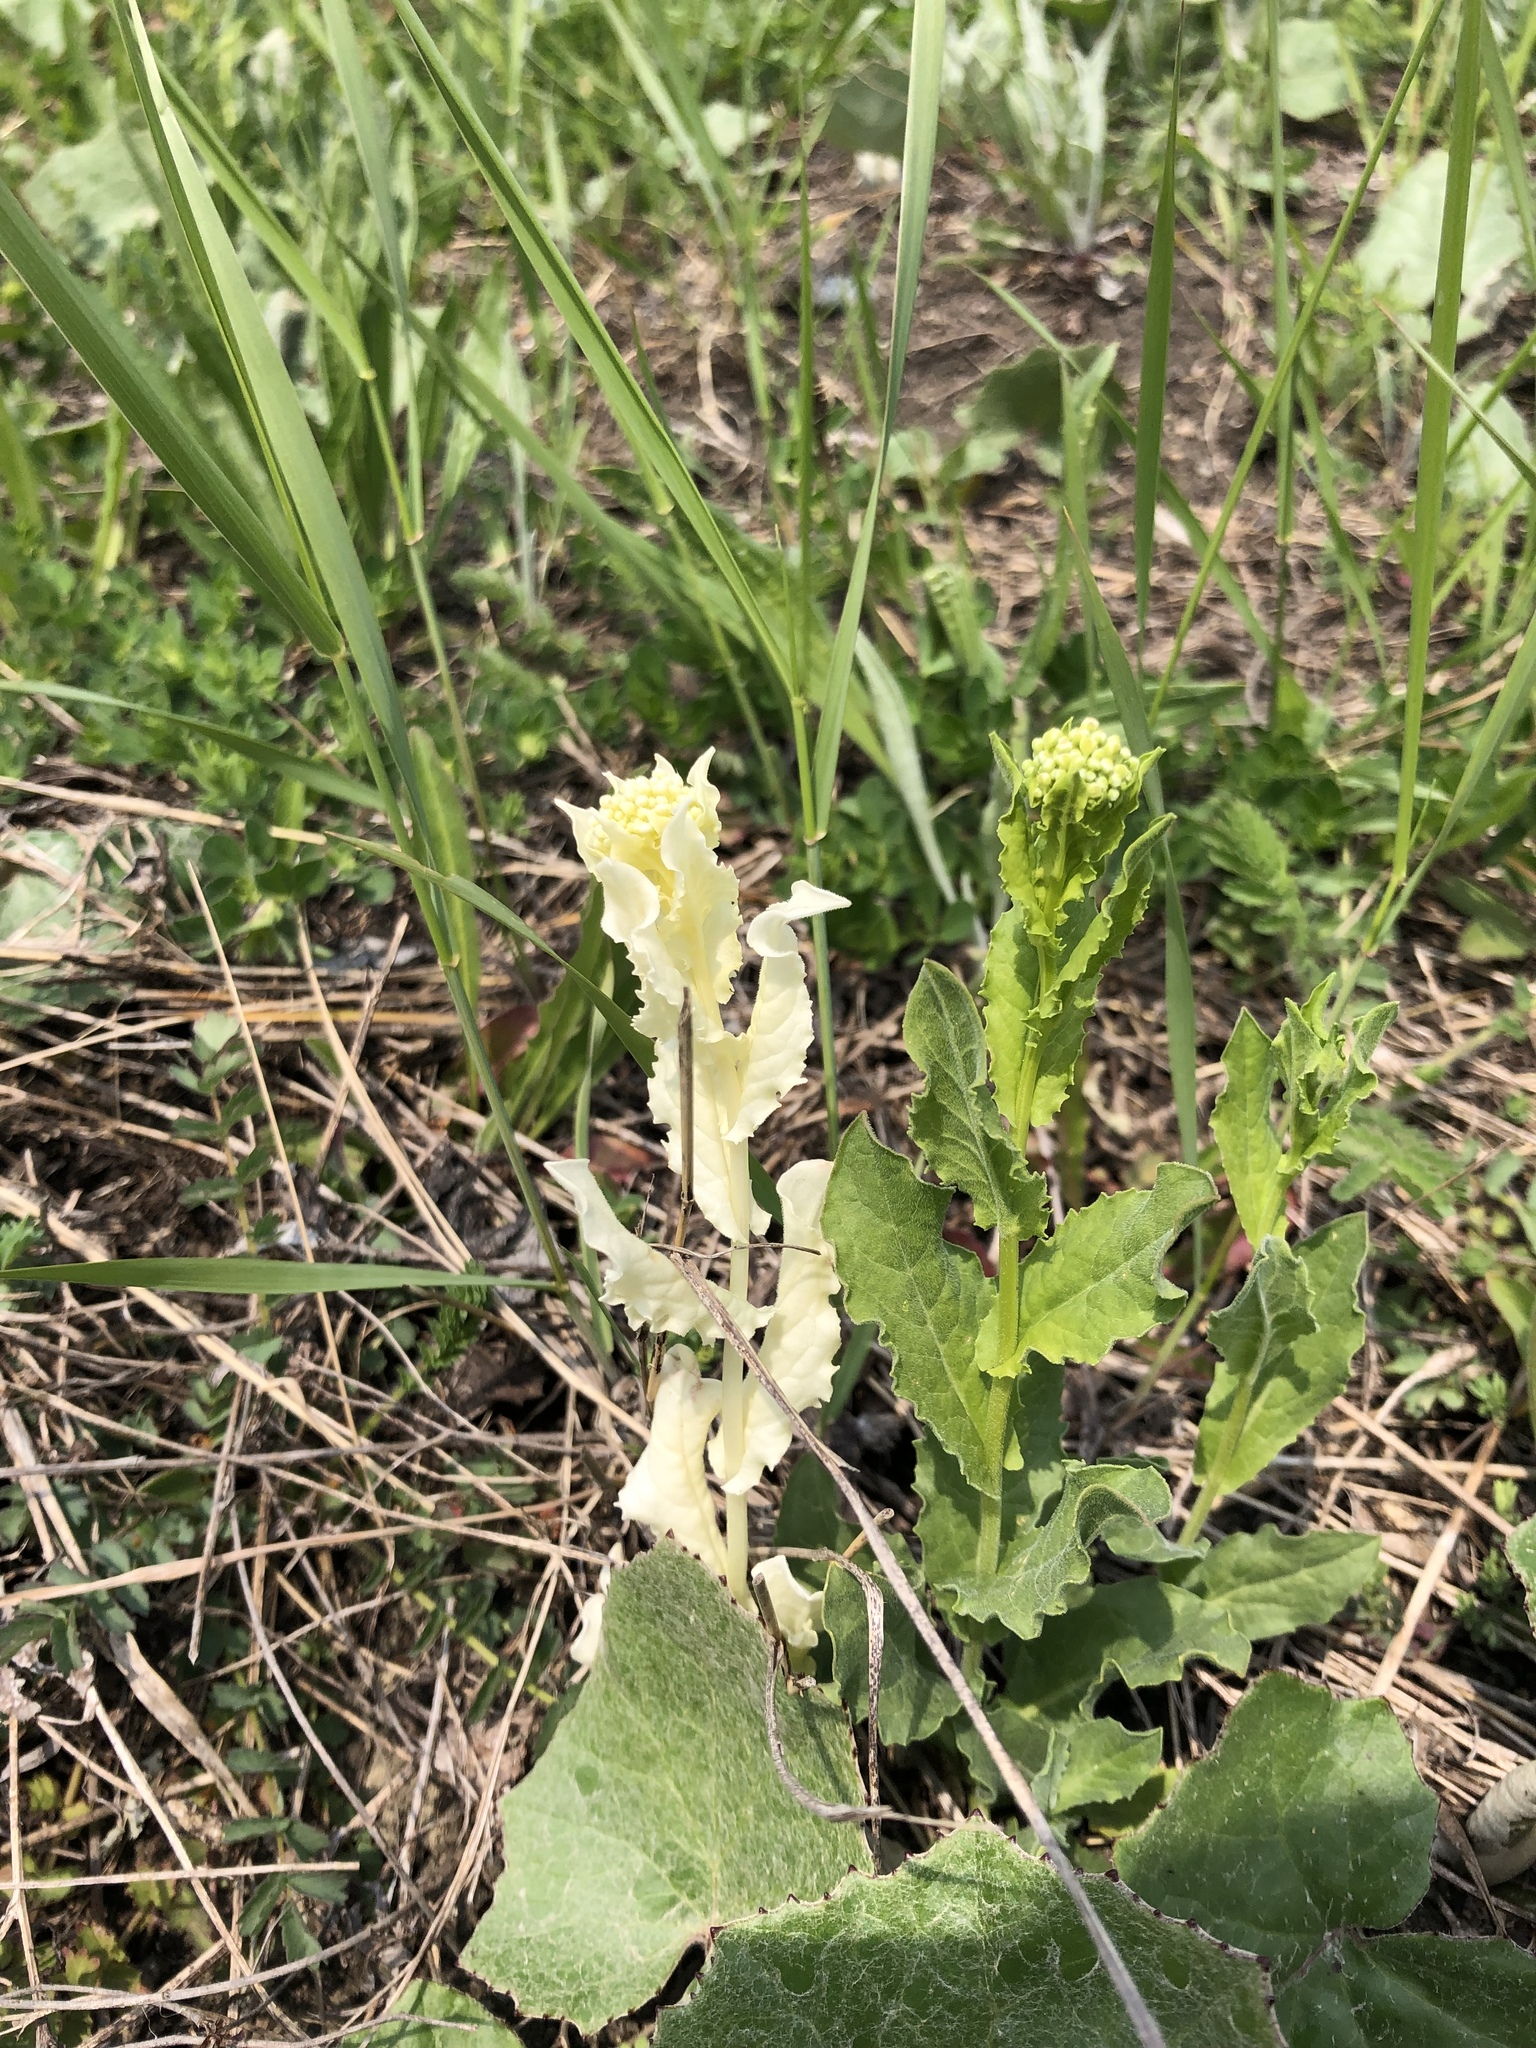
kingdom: Plantae
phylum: Tracheophyta
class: Magnoliopsida
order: Brassicales
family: Brassicaceae
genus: Lepidium
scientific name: Lepidium draba
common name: Hoary cress
